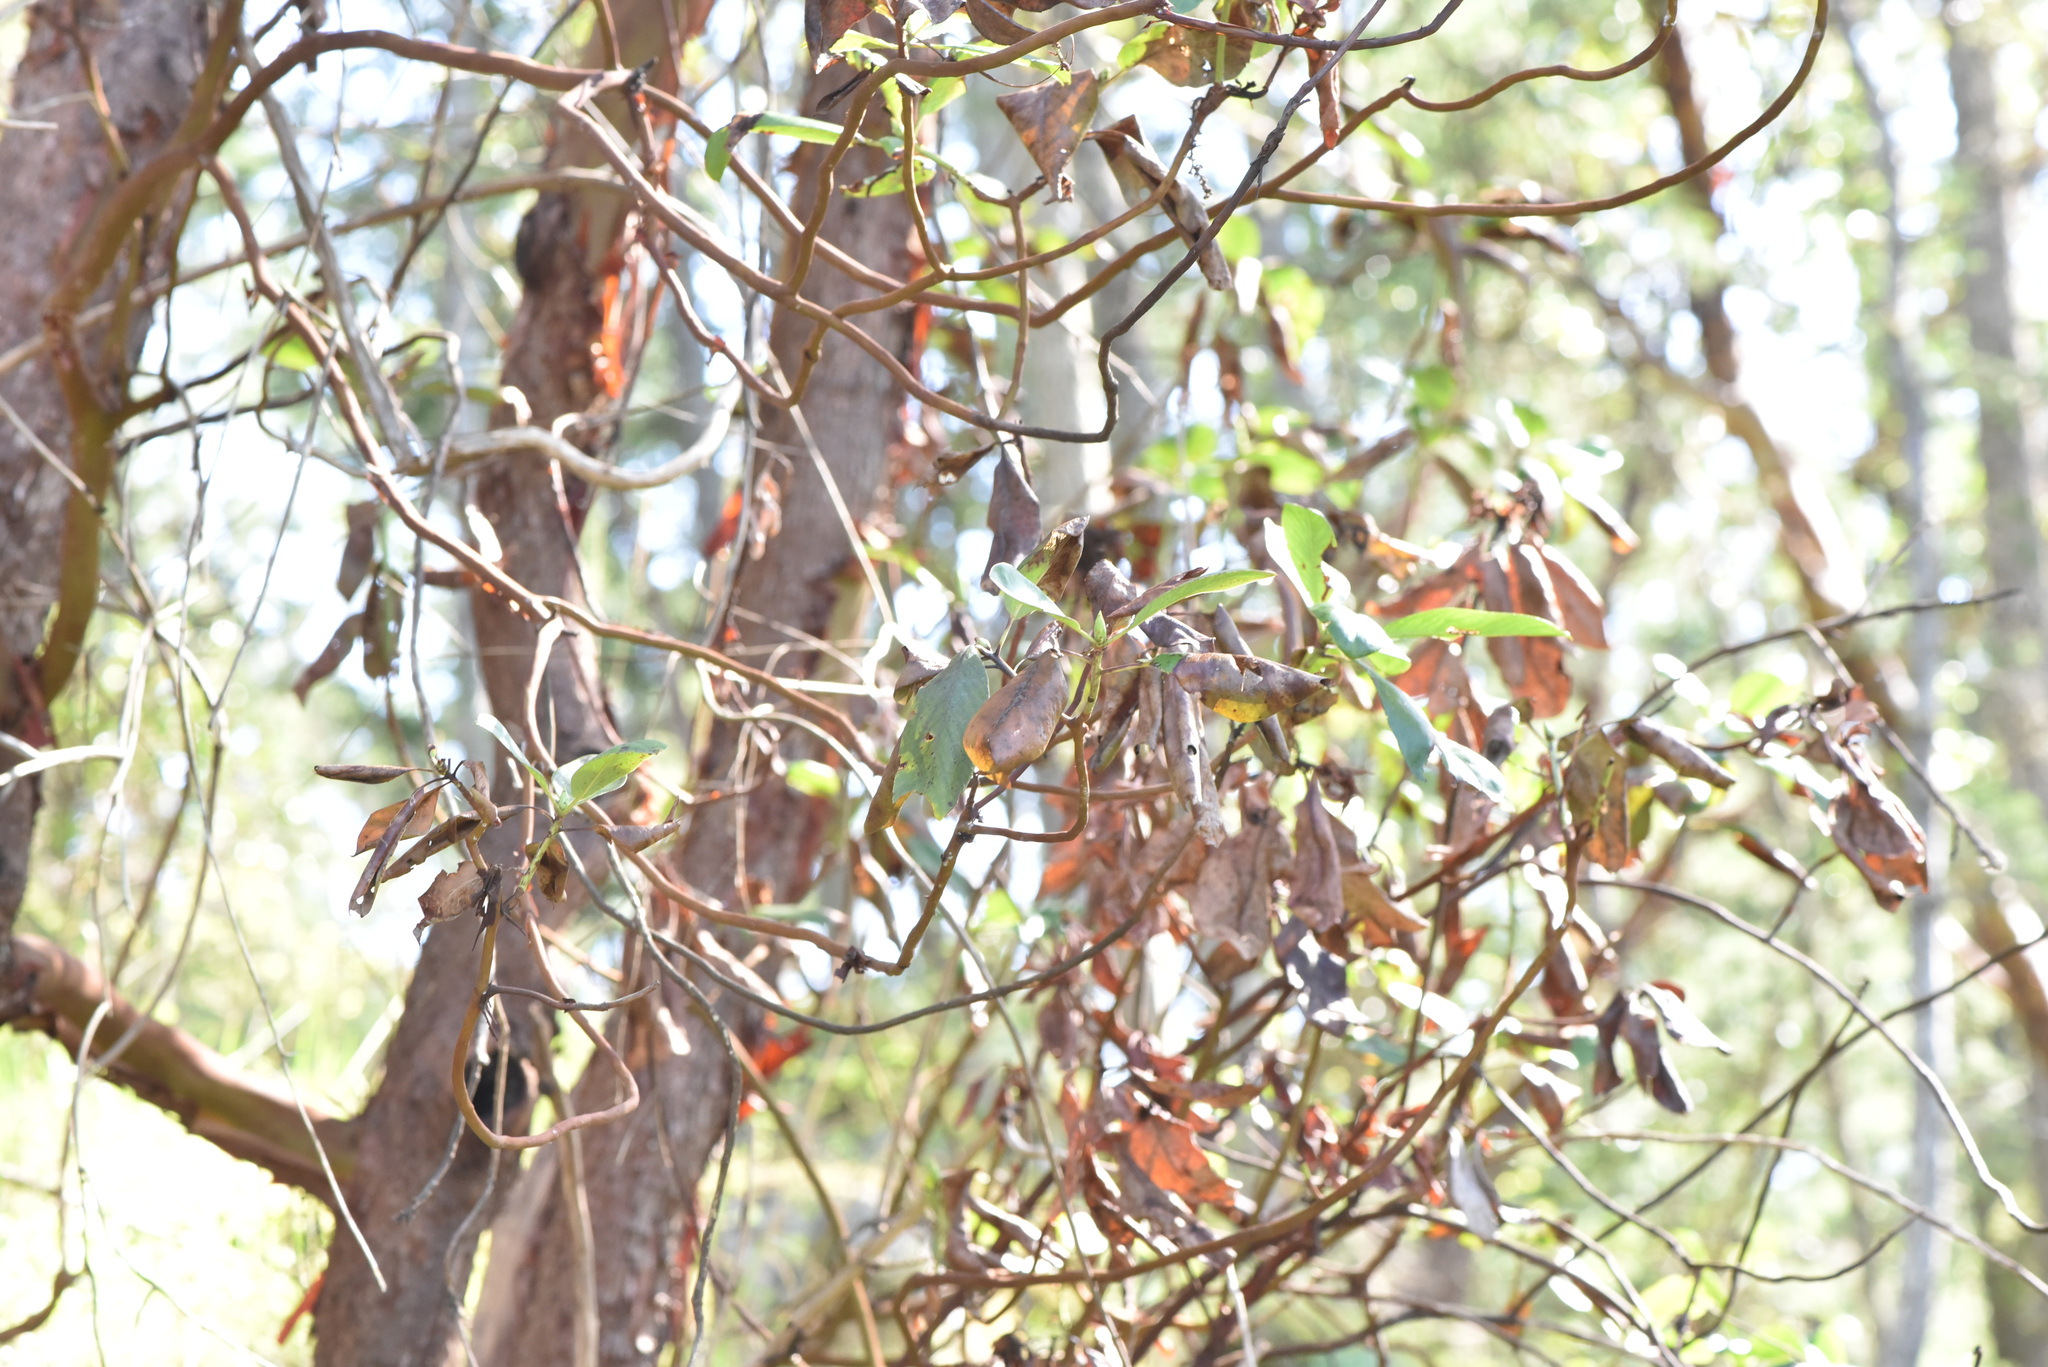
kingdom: Plantae
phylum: Tracheophyta
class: Magnoliopsida
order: Ericales
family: Ericaceae
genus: Arbutus
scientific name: Arbutus menziesii
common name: Pacific madrone
